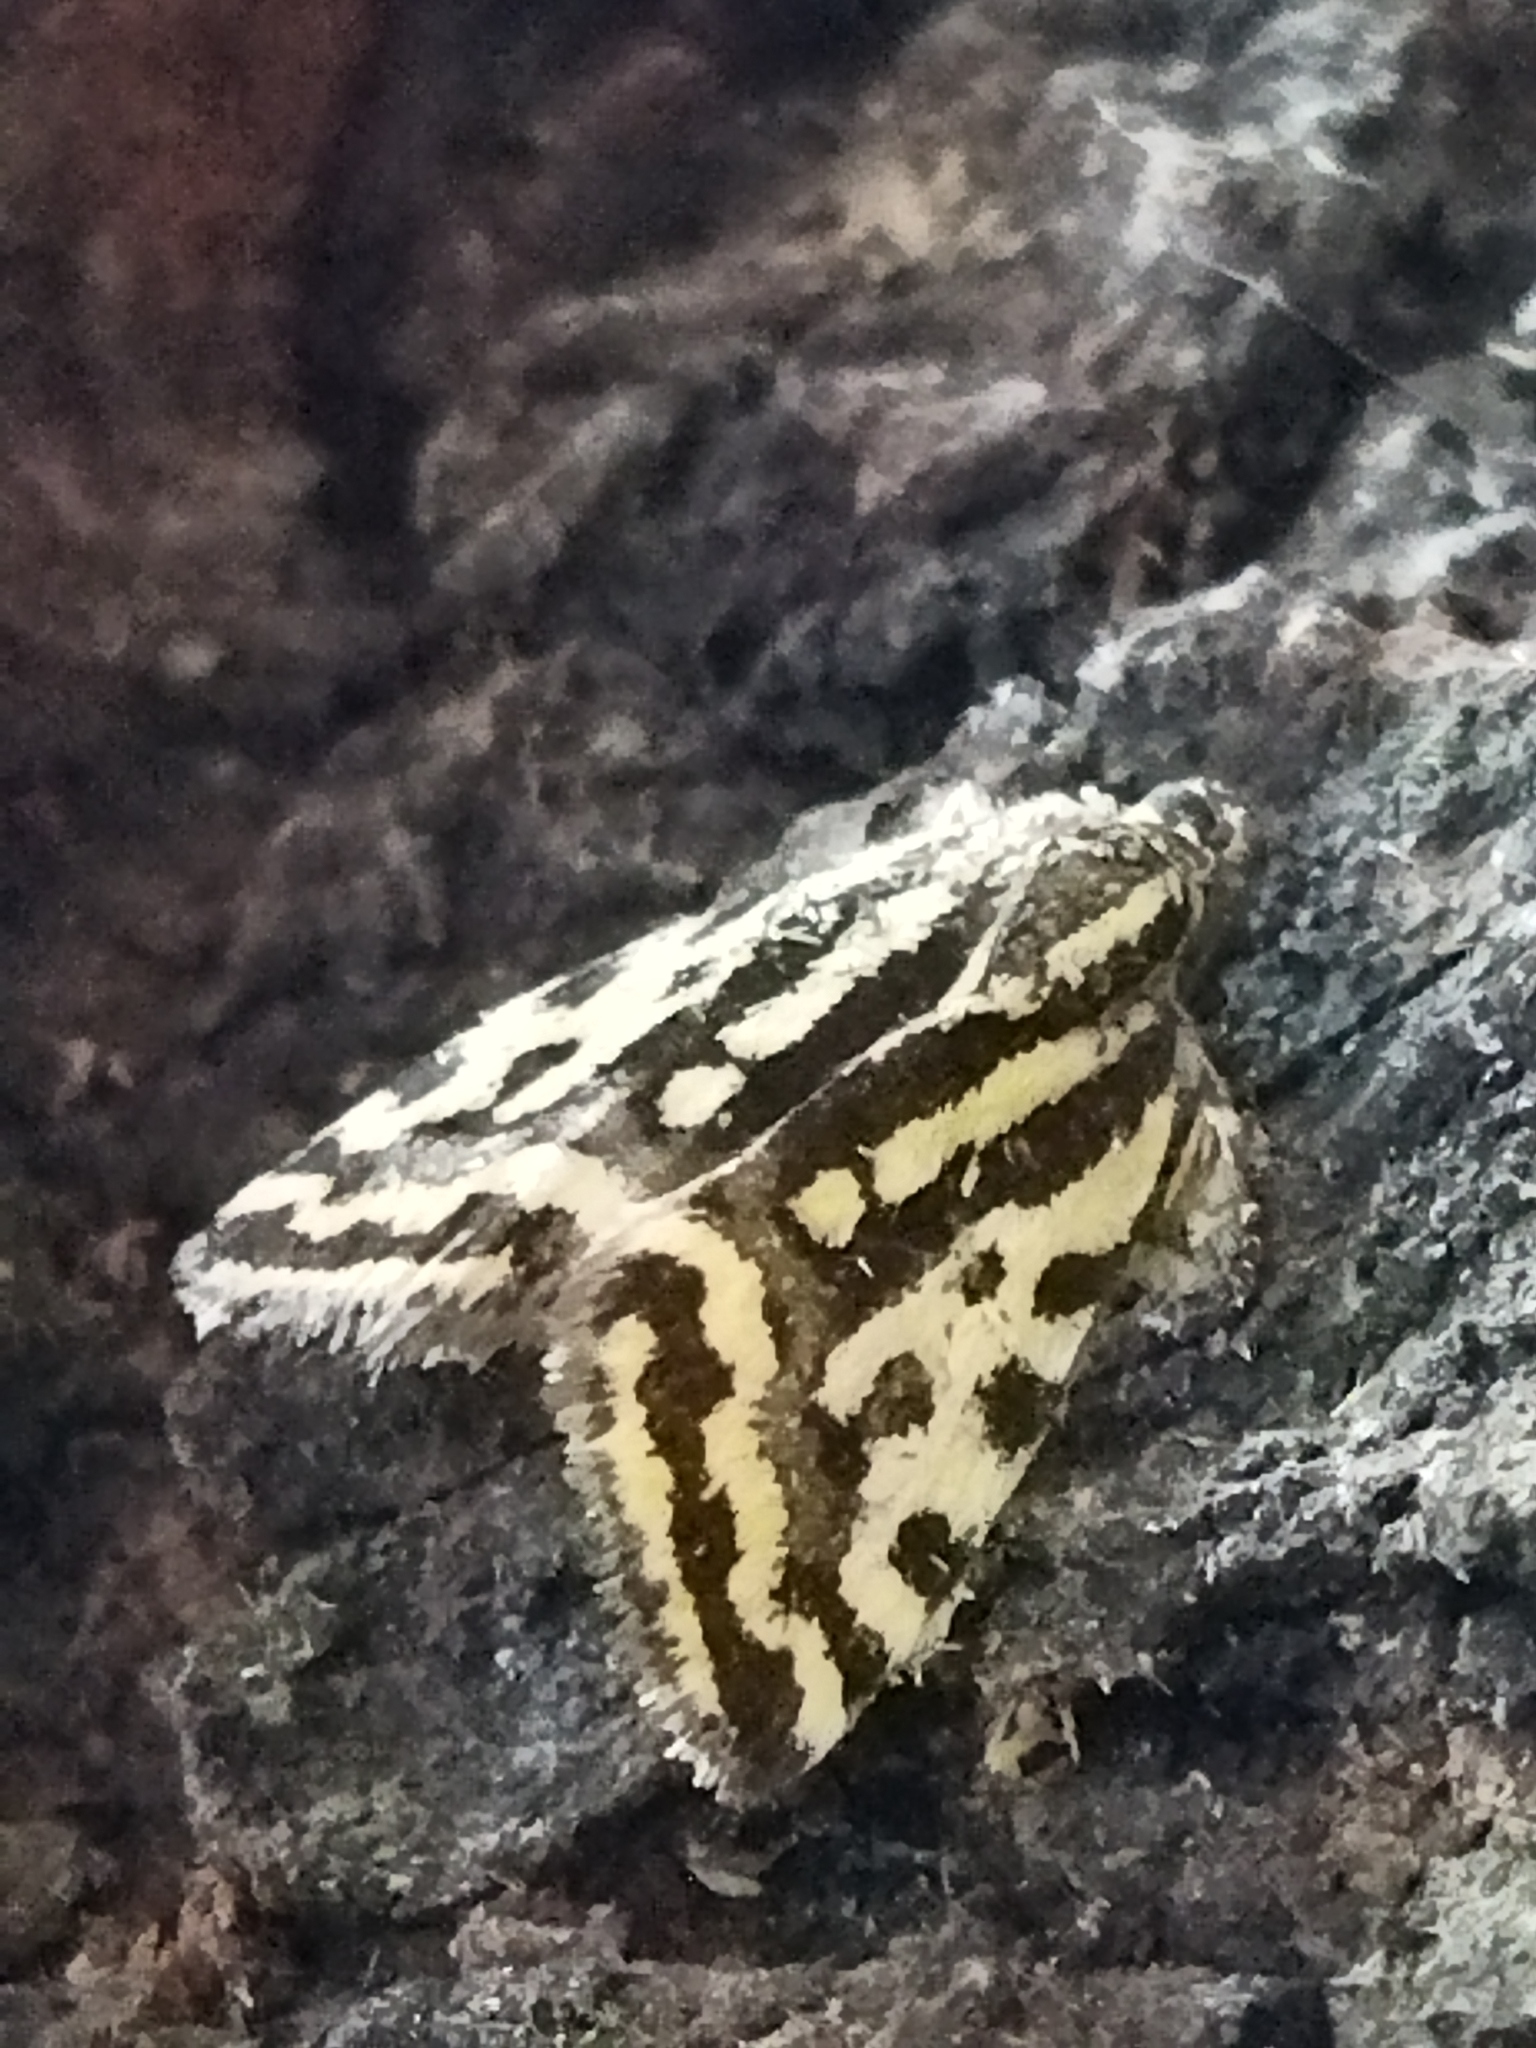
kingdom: Animalia
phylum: Arthropoda
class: Insecta
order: Lepidoptera
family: Noctuidae
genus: Acontia
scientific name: Acontia trabealis
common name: Spotted sulphur
